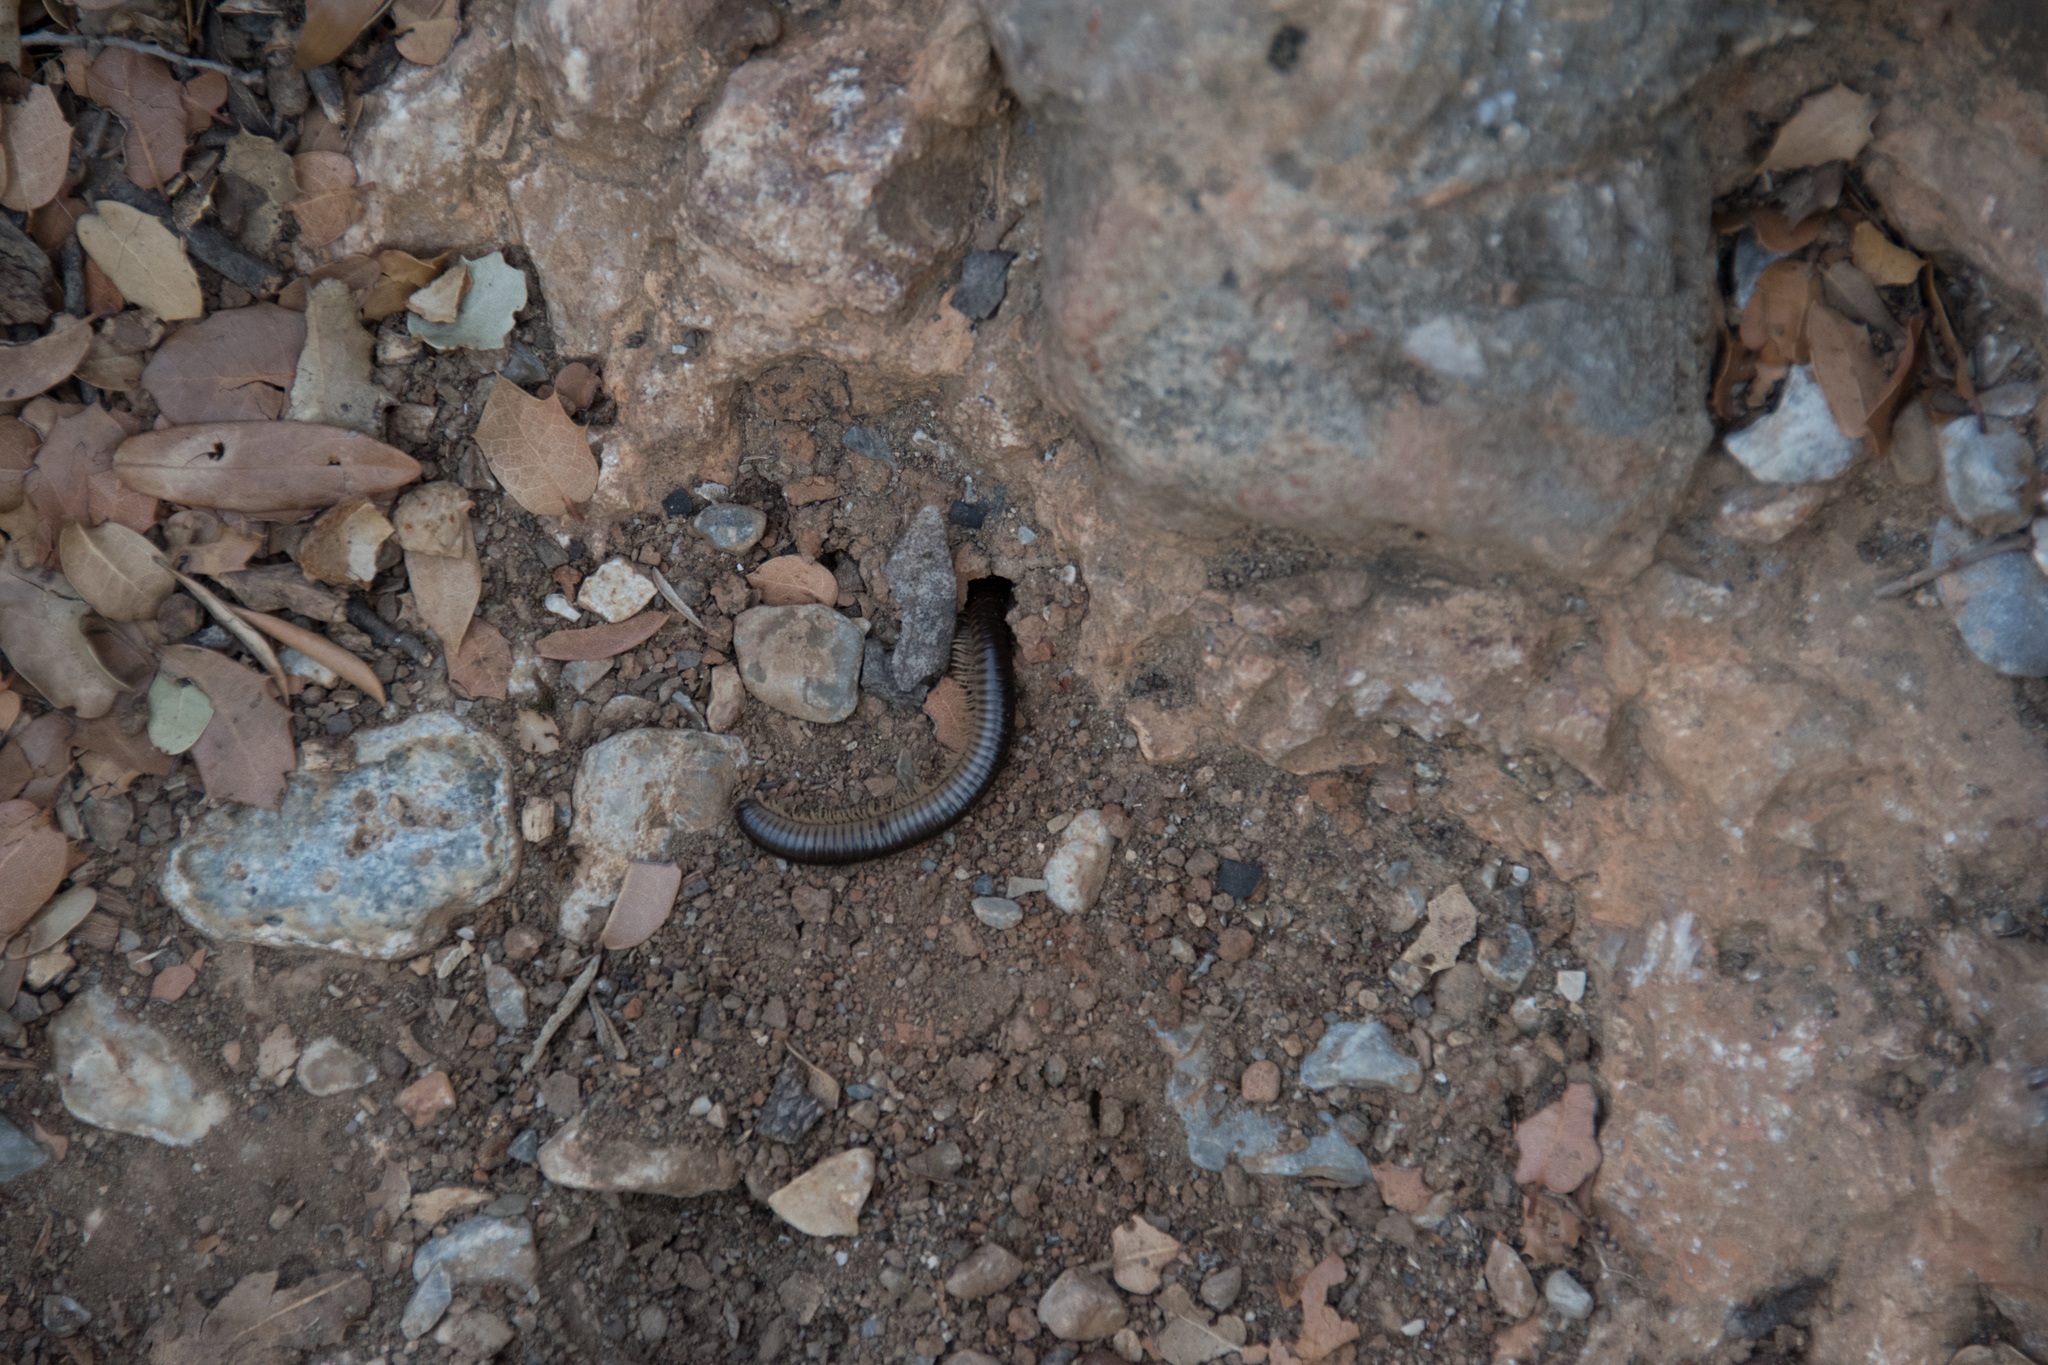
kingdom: Animalia
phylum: Arthropoda
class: Diplopoda
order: Julida
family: Julidae
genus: Pachyiulus
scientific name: Pachyiulus flavipes
